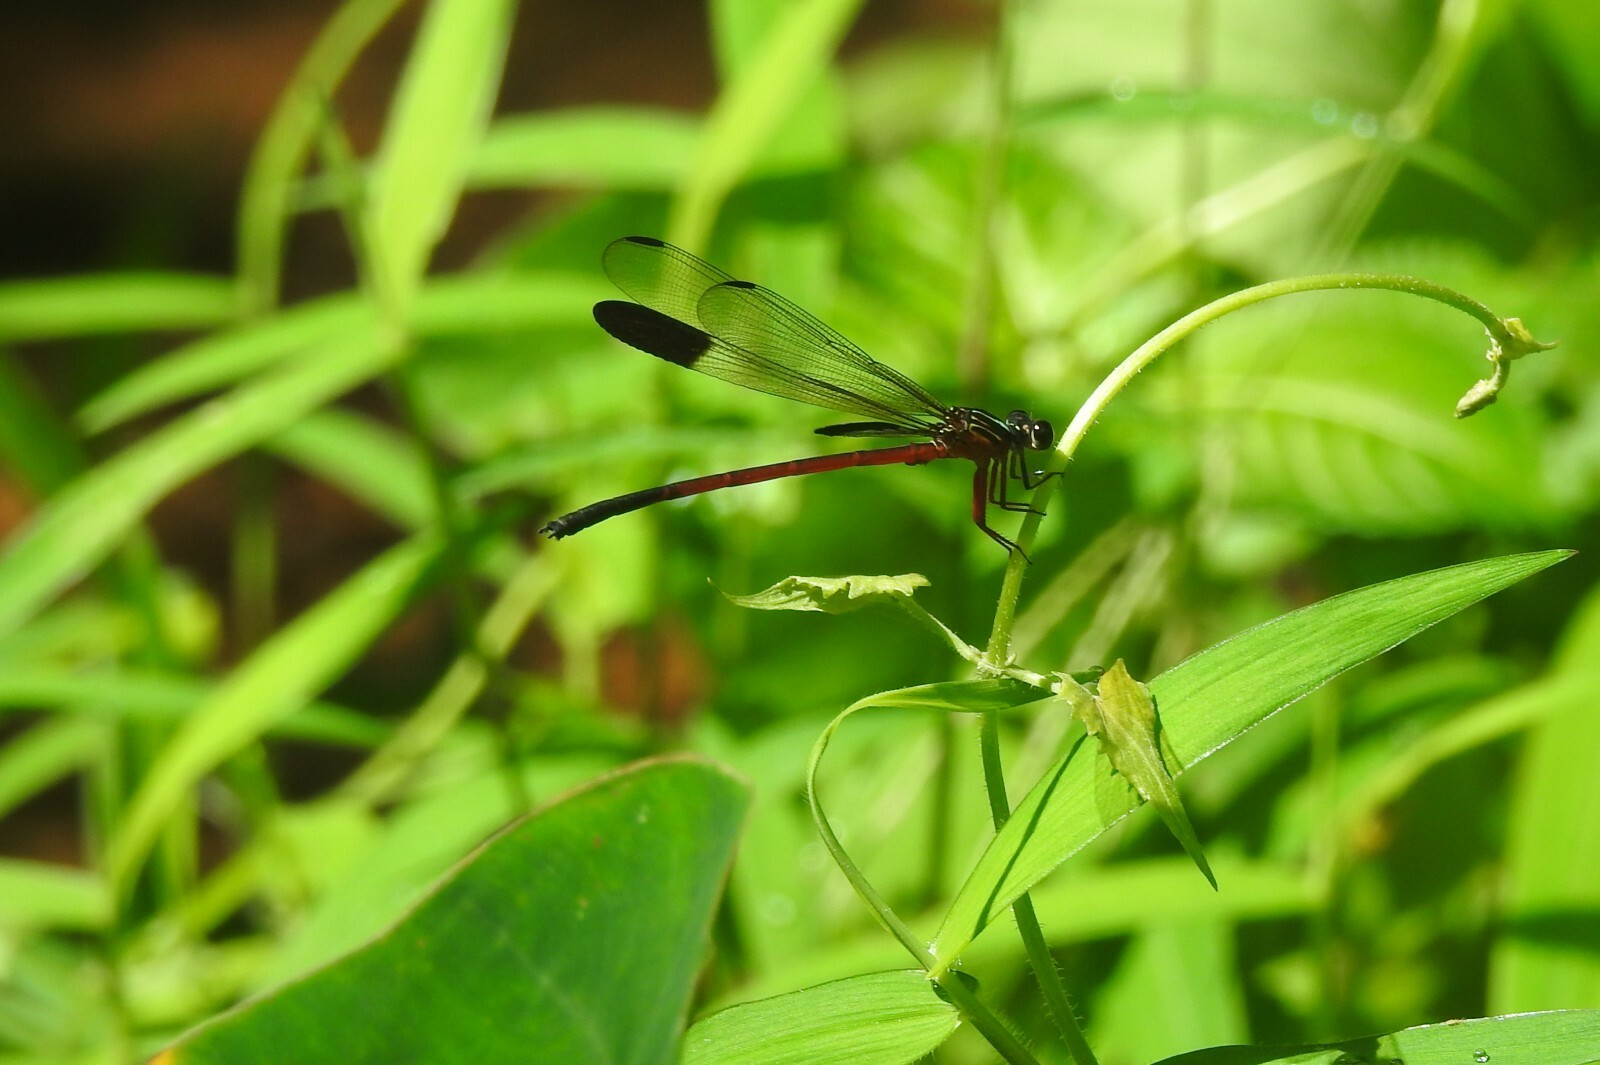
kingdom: Animalia
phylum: Arthropoda
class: Insecta
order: Odonata
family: Euphaeidae
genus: Euphaea
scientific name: Euphaea fraseri
